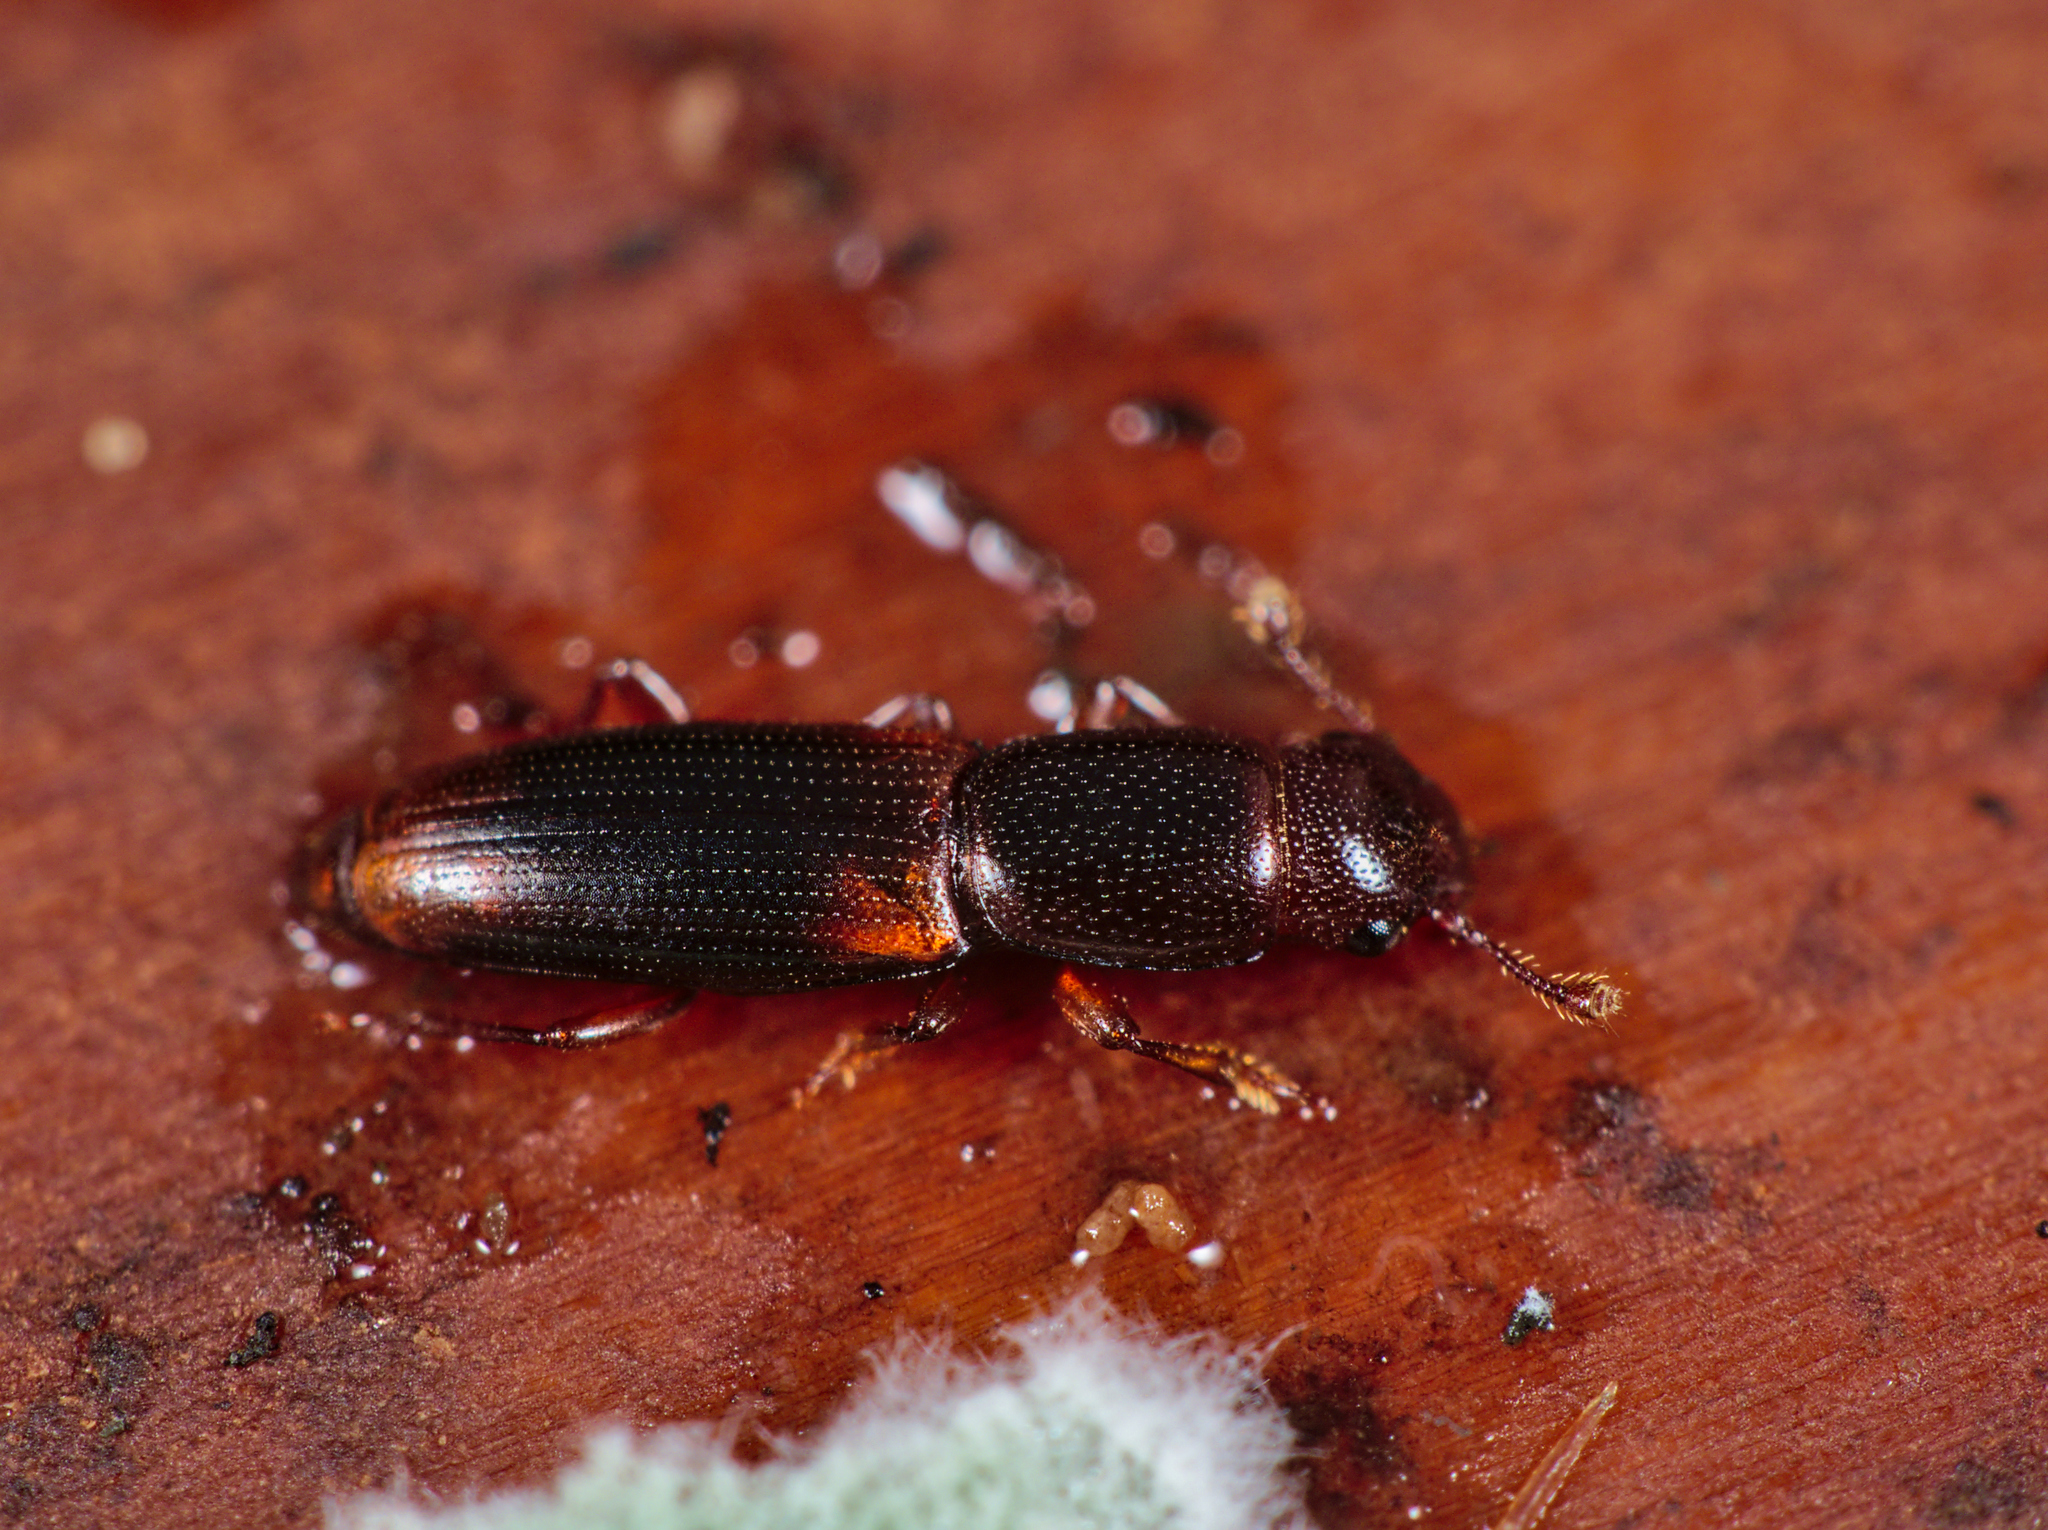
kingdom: Animalia
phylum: Arthropoda
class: Insecta
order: Coleoptera
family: Monotomidae
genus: Rhizophagus
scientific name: Rhizophagus dispar
